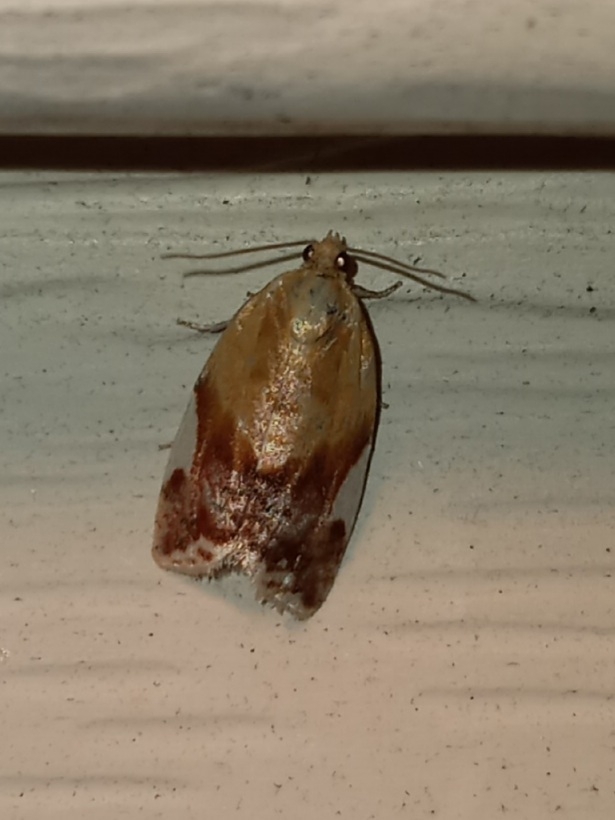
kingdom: Animalia
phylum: Arthropoda
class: Insecta
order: Lepidoptera
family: Tortricidae
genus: Clepsis
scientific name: Clepsis persicana
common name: White triangle tortrix
